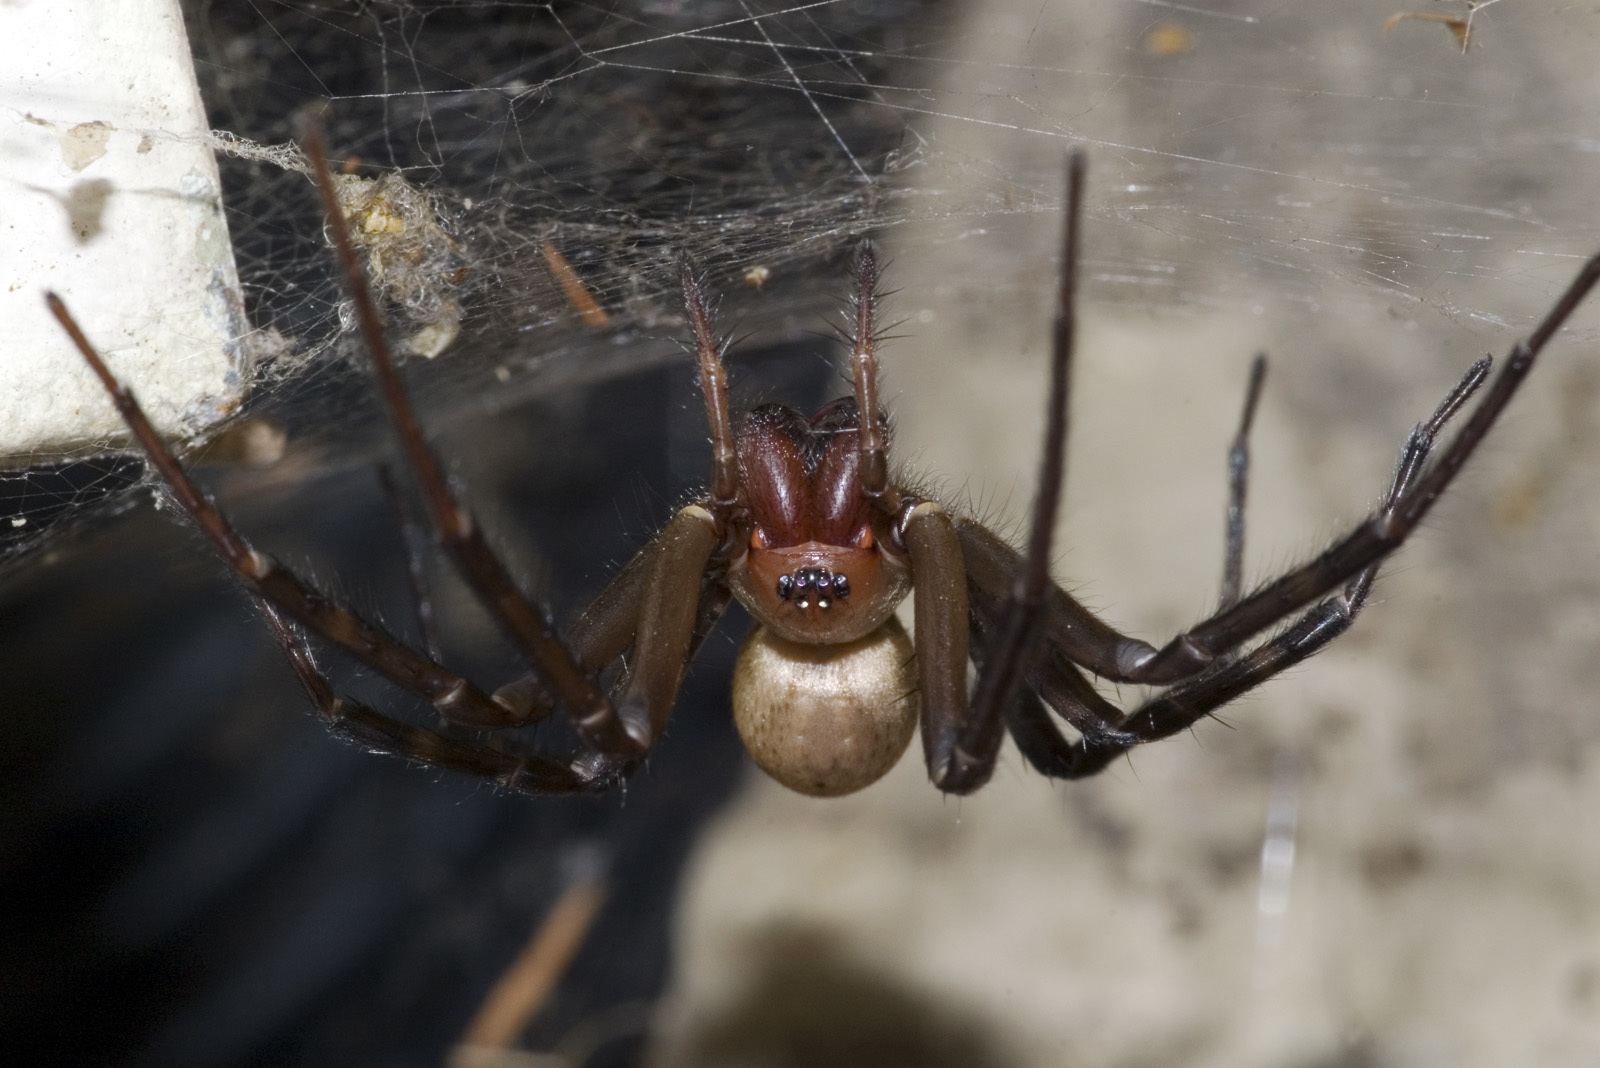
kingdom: Animalia
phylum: Arthropoda
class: Arachnida
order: Araneae
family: Desidae
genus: Cambridgea
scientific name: Cambridgea foliata
